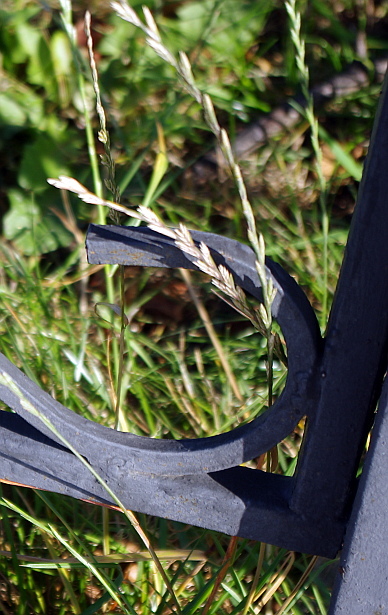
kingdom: Plantae
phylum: Tracheophyta
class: Liliopsida
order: Poales
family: Poaceae
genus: Lolium
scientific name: Lolium perenne
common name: Perennial ryegrass
